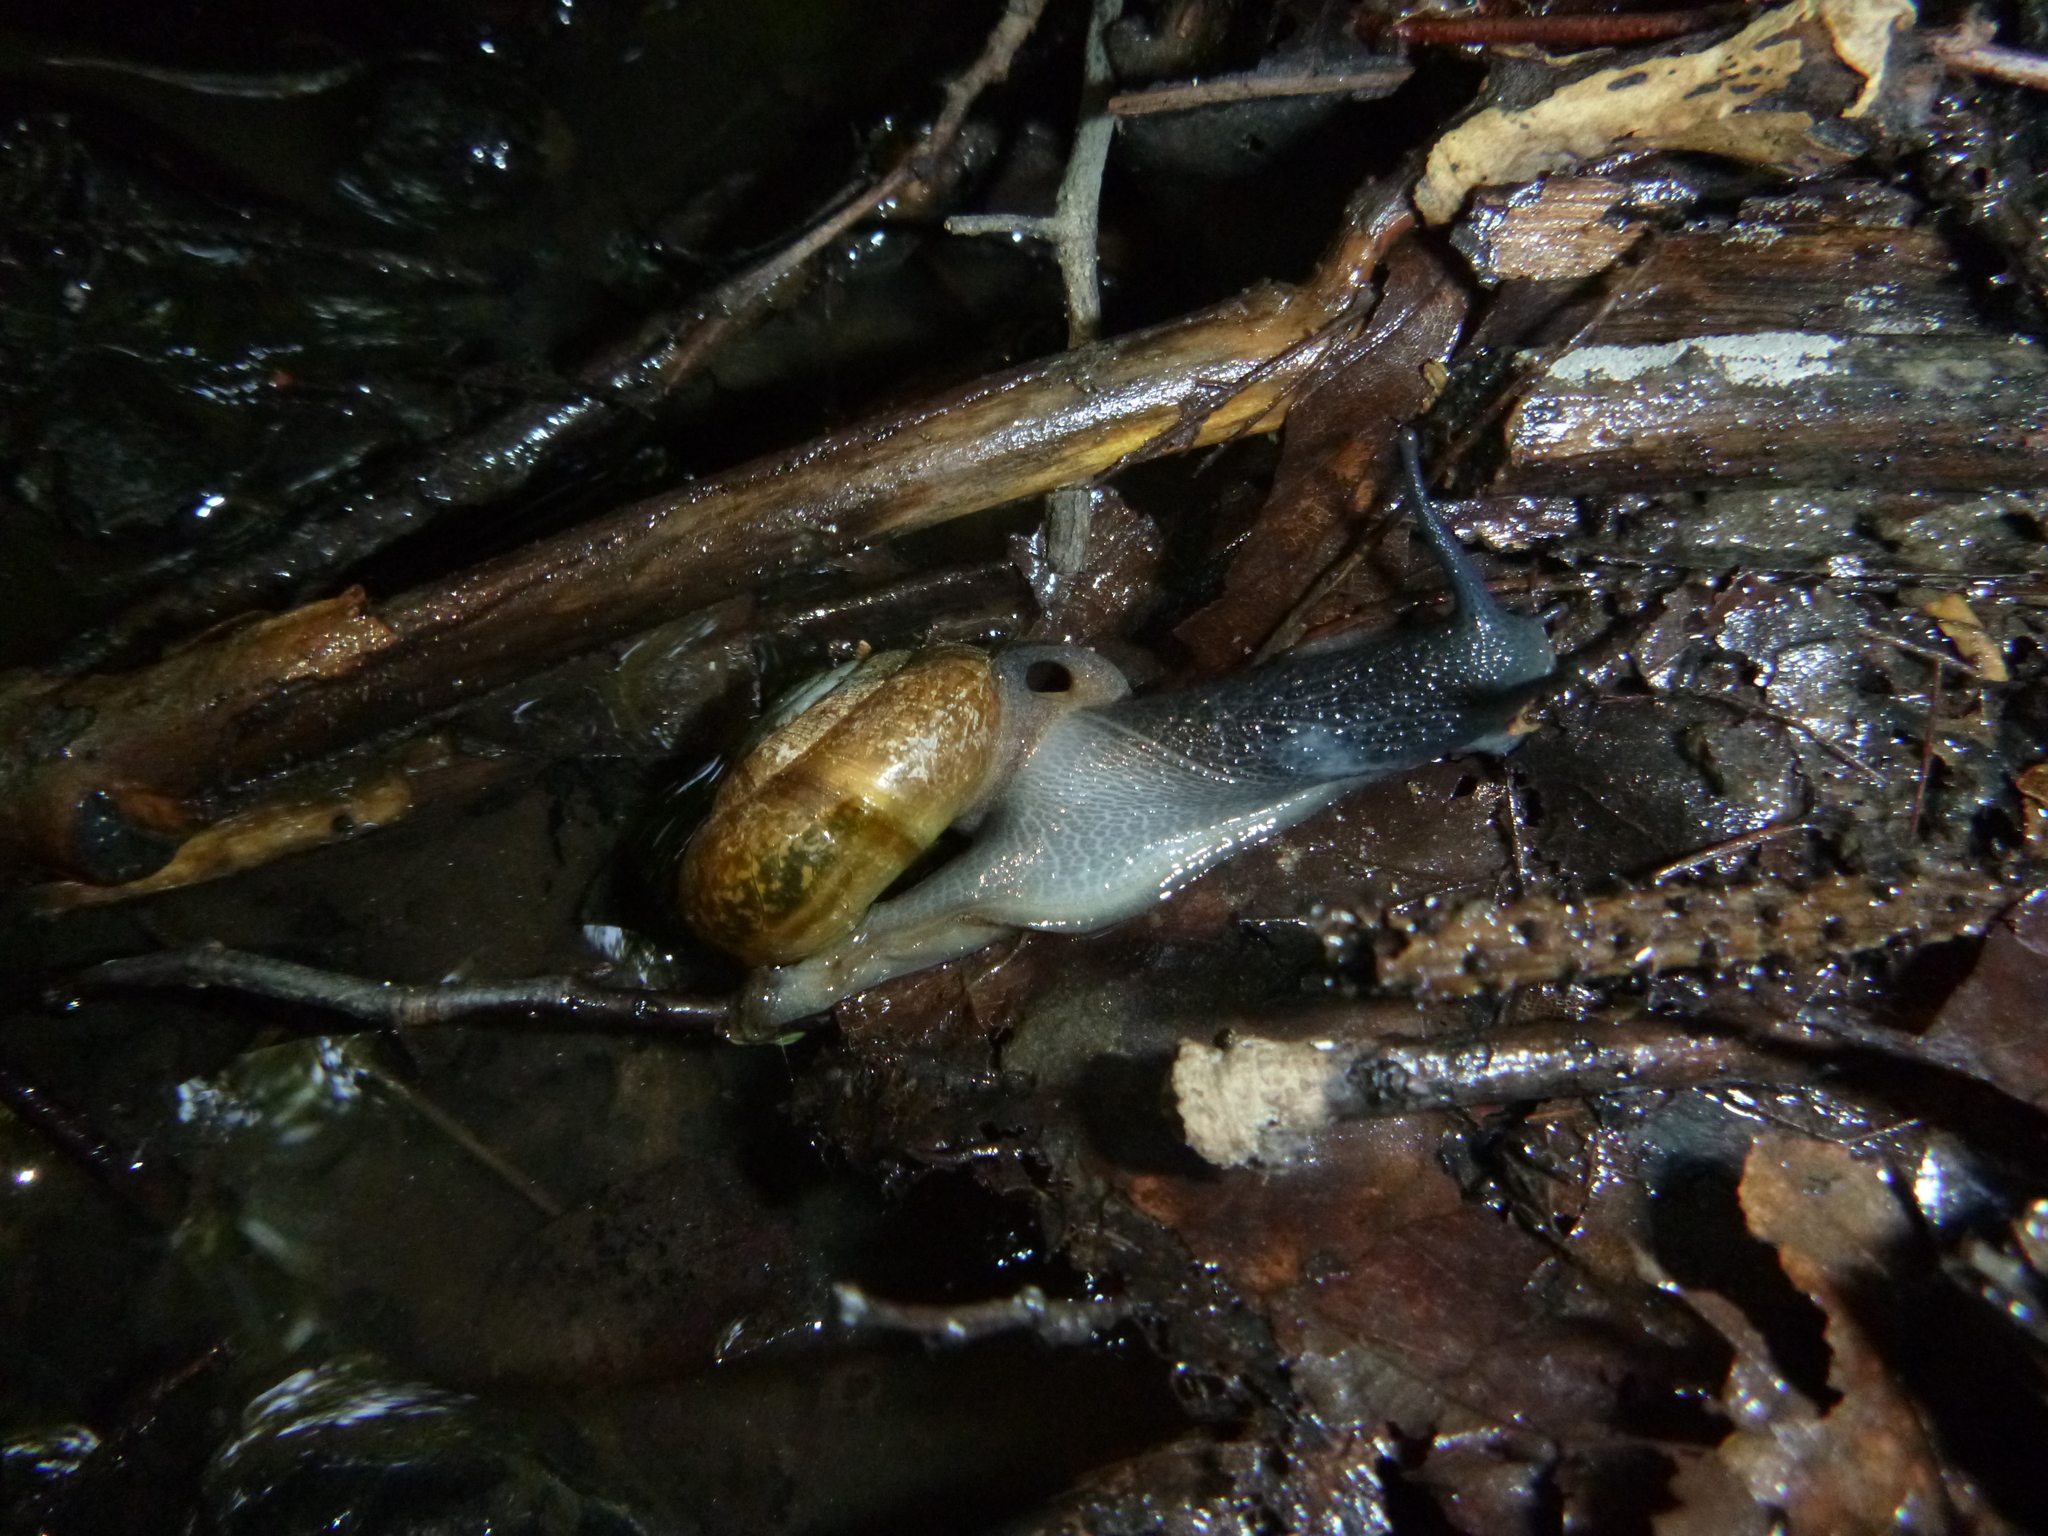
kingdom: Animalia
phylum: Mollusca
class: Gastropoda
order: Stylommatophora
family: Zonitidae
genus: Aegopis
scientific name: Aegopis verticillus
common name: Giant glass snail
